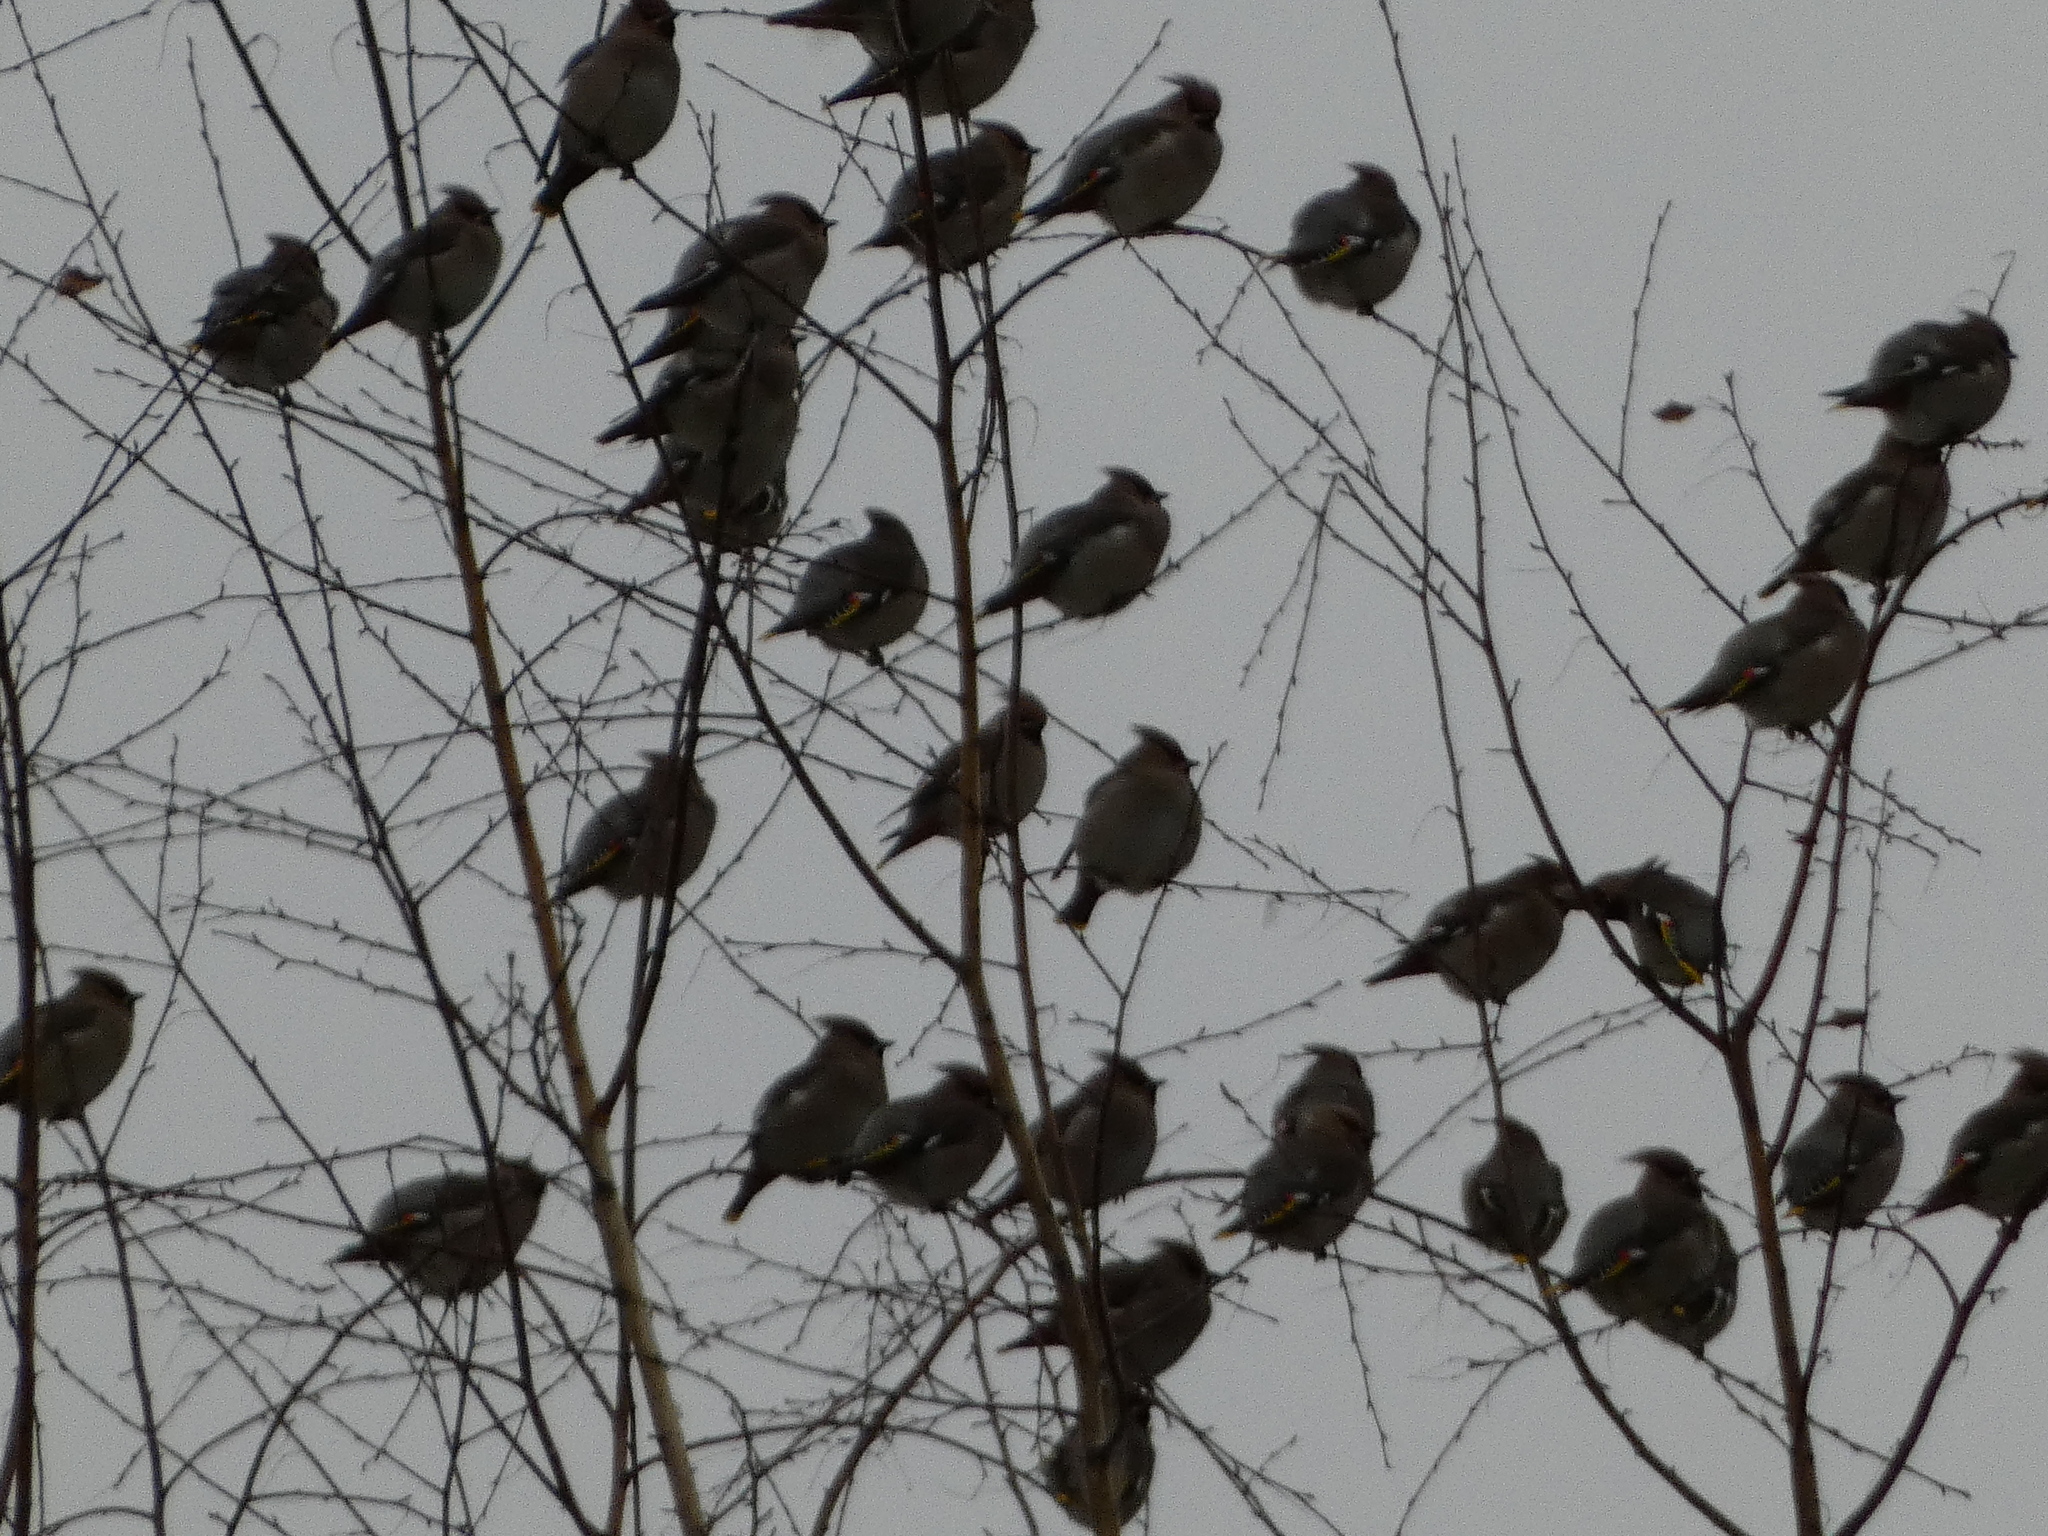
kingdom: Animalia
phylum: Chordata
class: Aves
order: Passeriformes
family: Bombycillidae
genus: Bombycilla
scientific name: Bombycilla garrulus
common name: Bohemian waxwing
